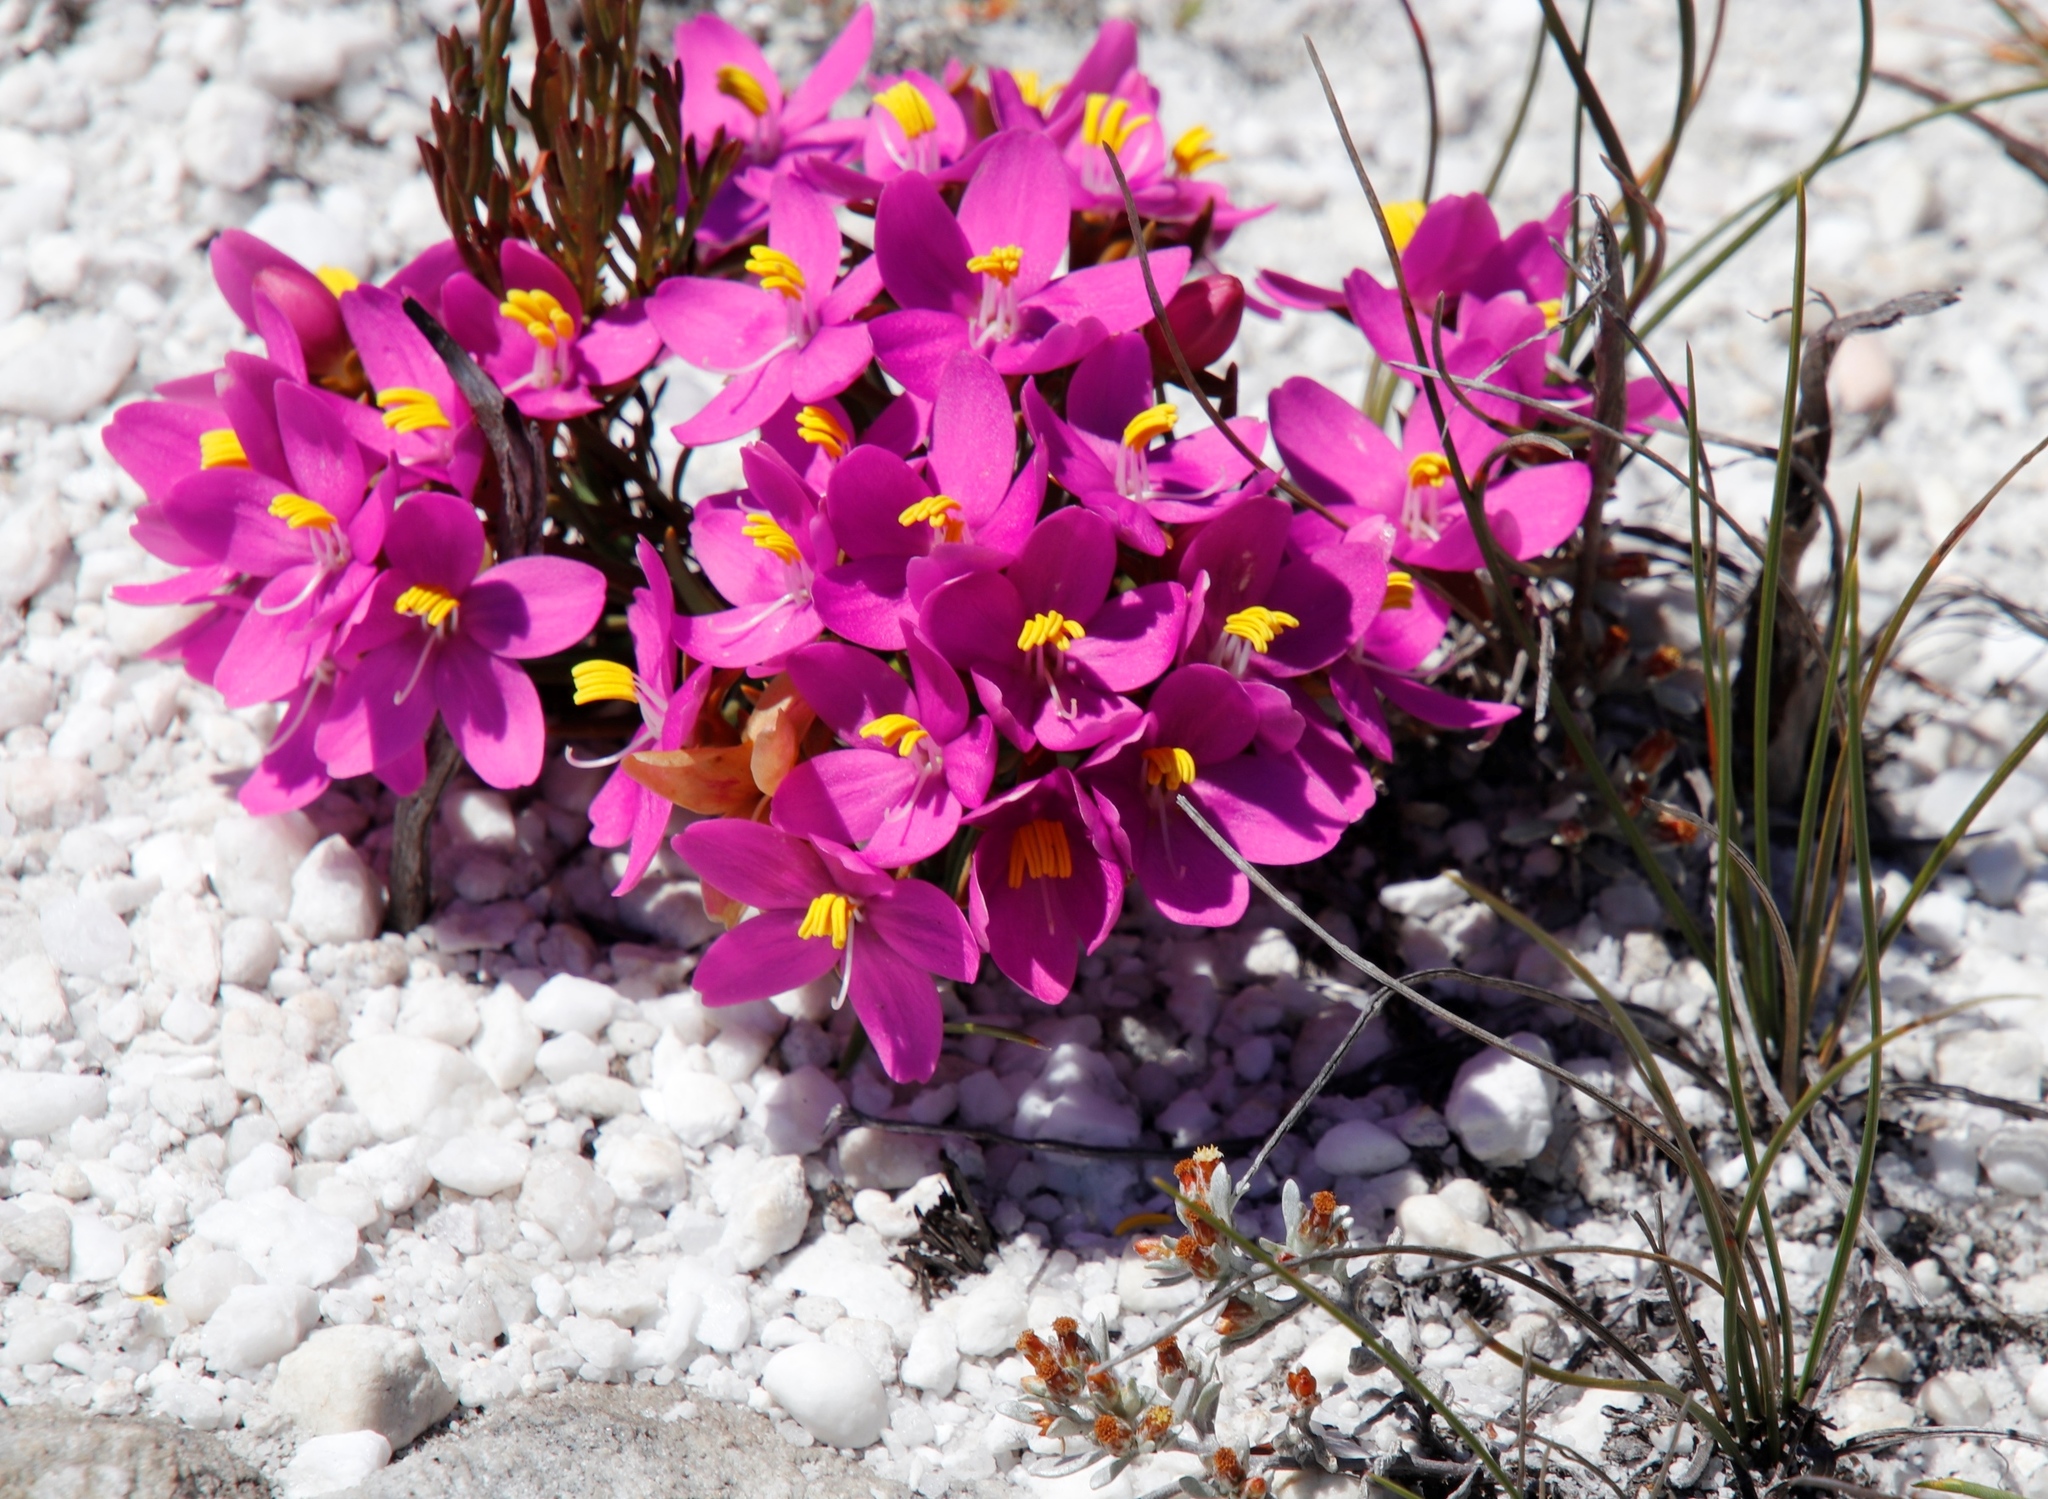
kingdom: Plantae
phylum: Tracheophyta
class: Magnoliopsida
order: Gentianales
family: Gentianaceae
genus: Chironia
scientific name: Chironia linoides
